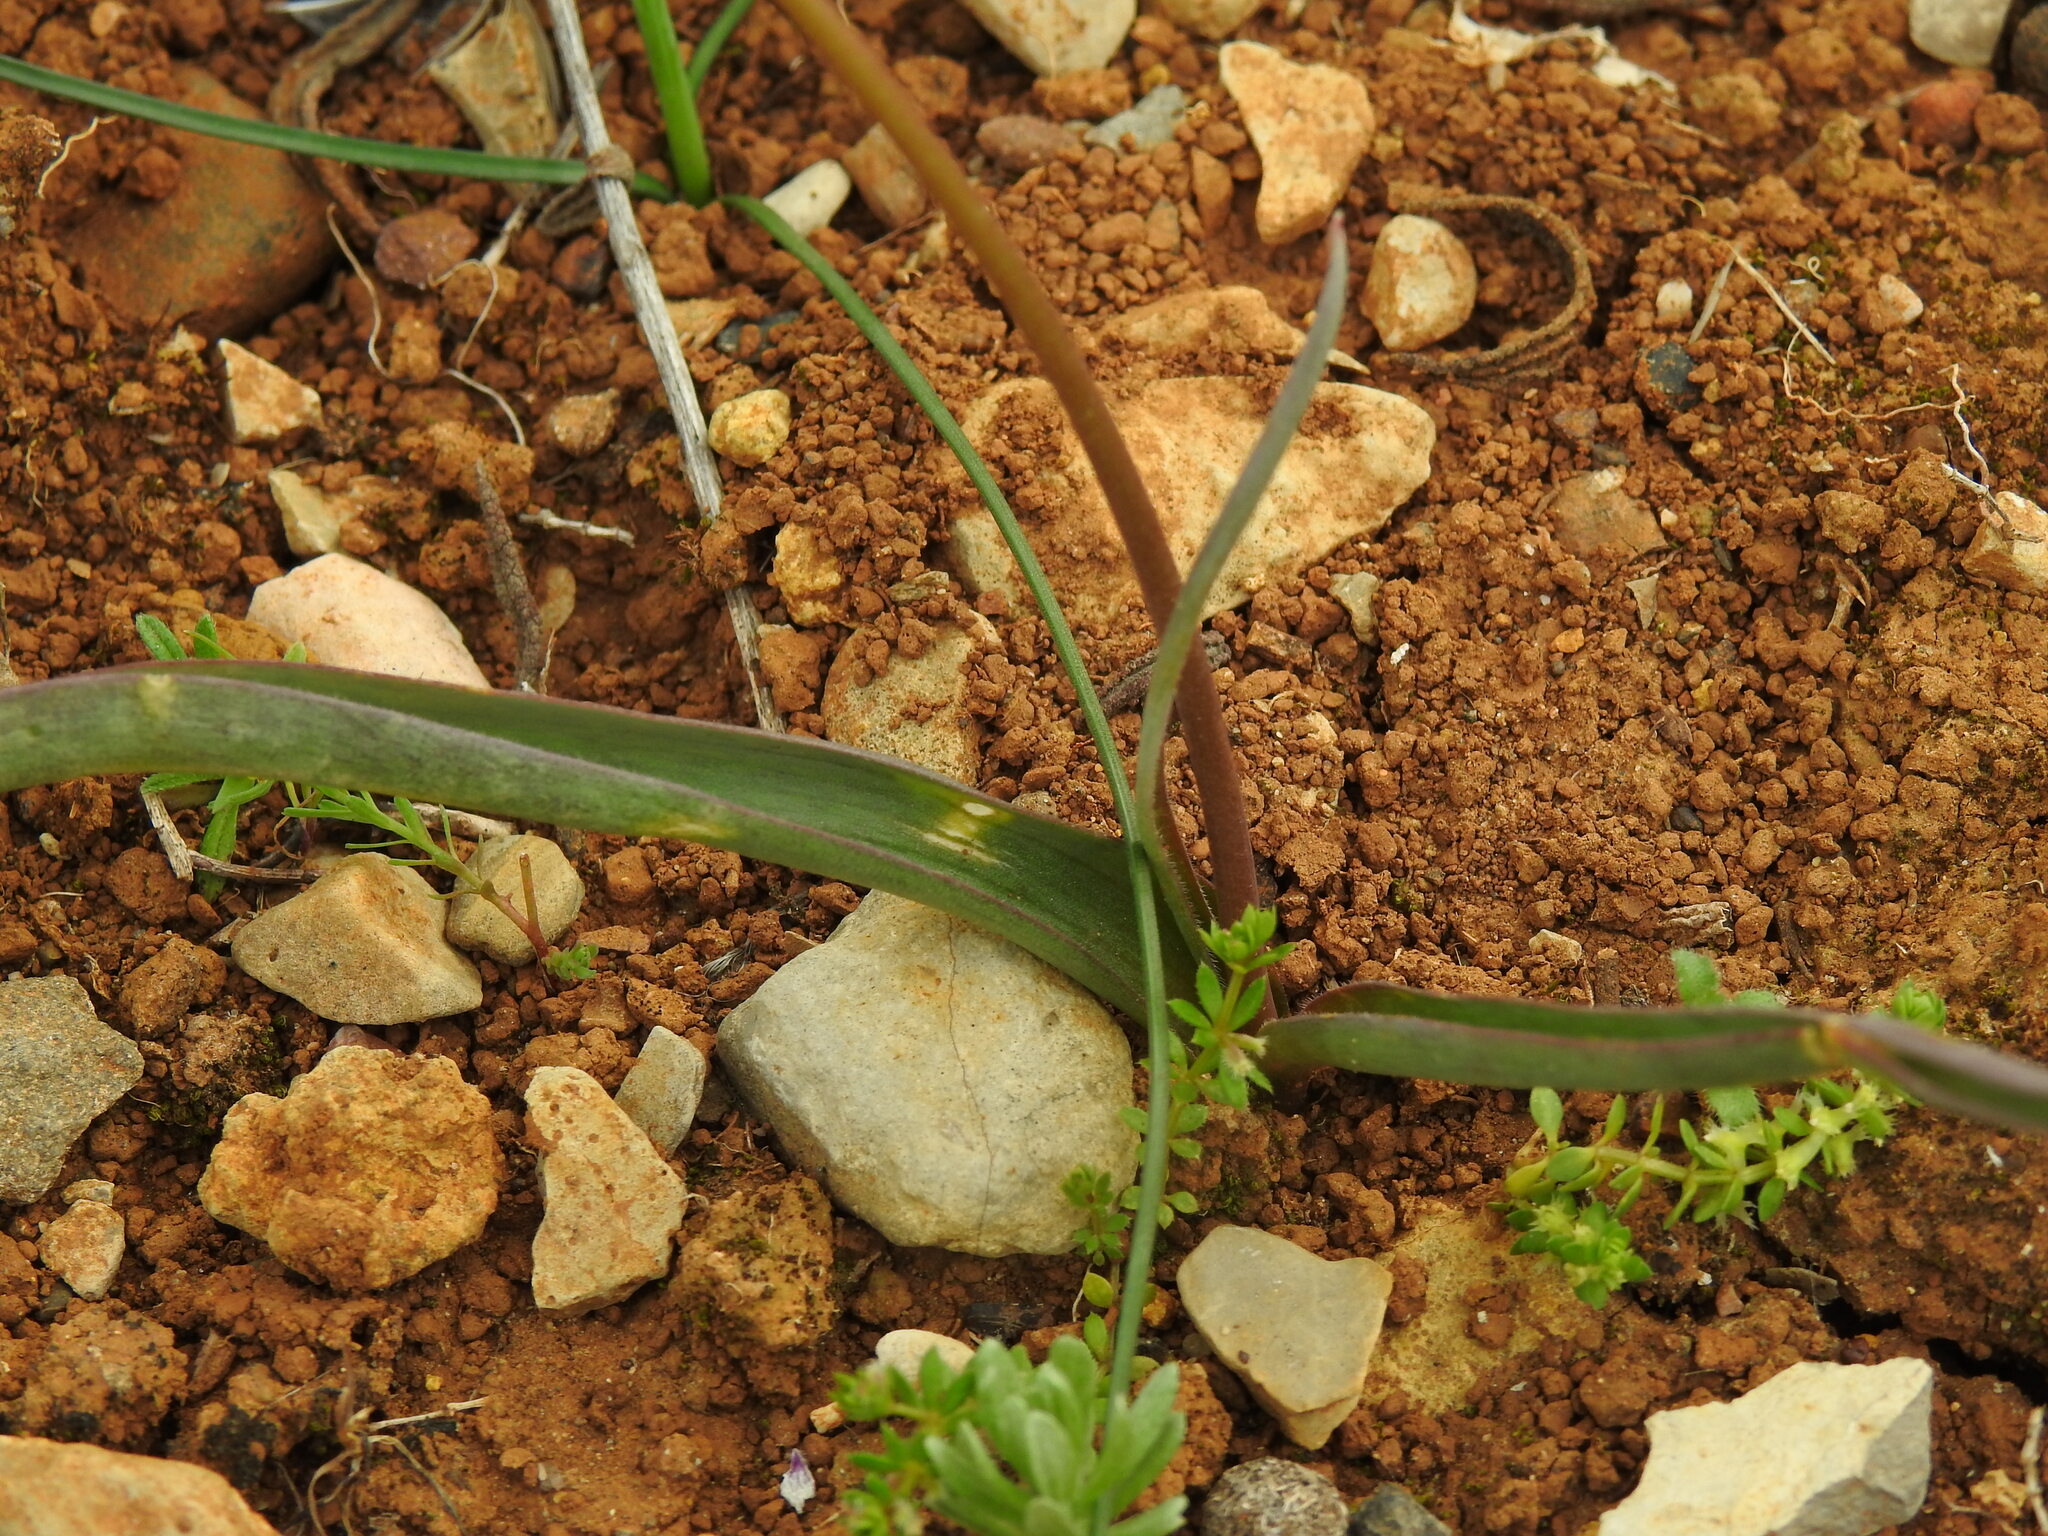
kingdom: Plantae
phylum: Tracheophyta
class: Liliopsida
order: Liliales
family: Liliaceae
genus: Tulipa
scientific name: Tulipa sylvestris
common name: Wild tulip
